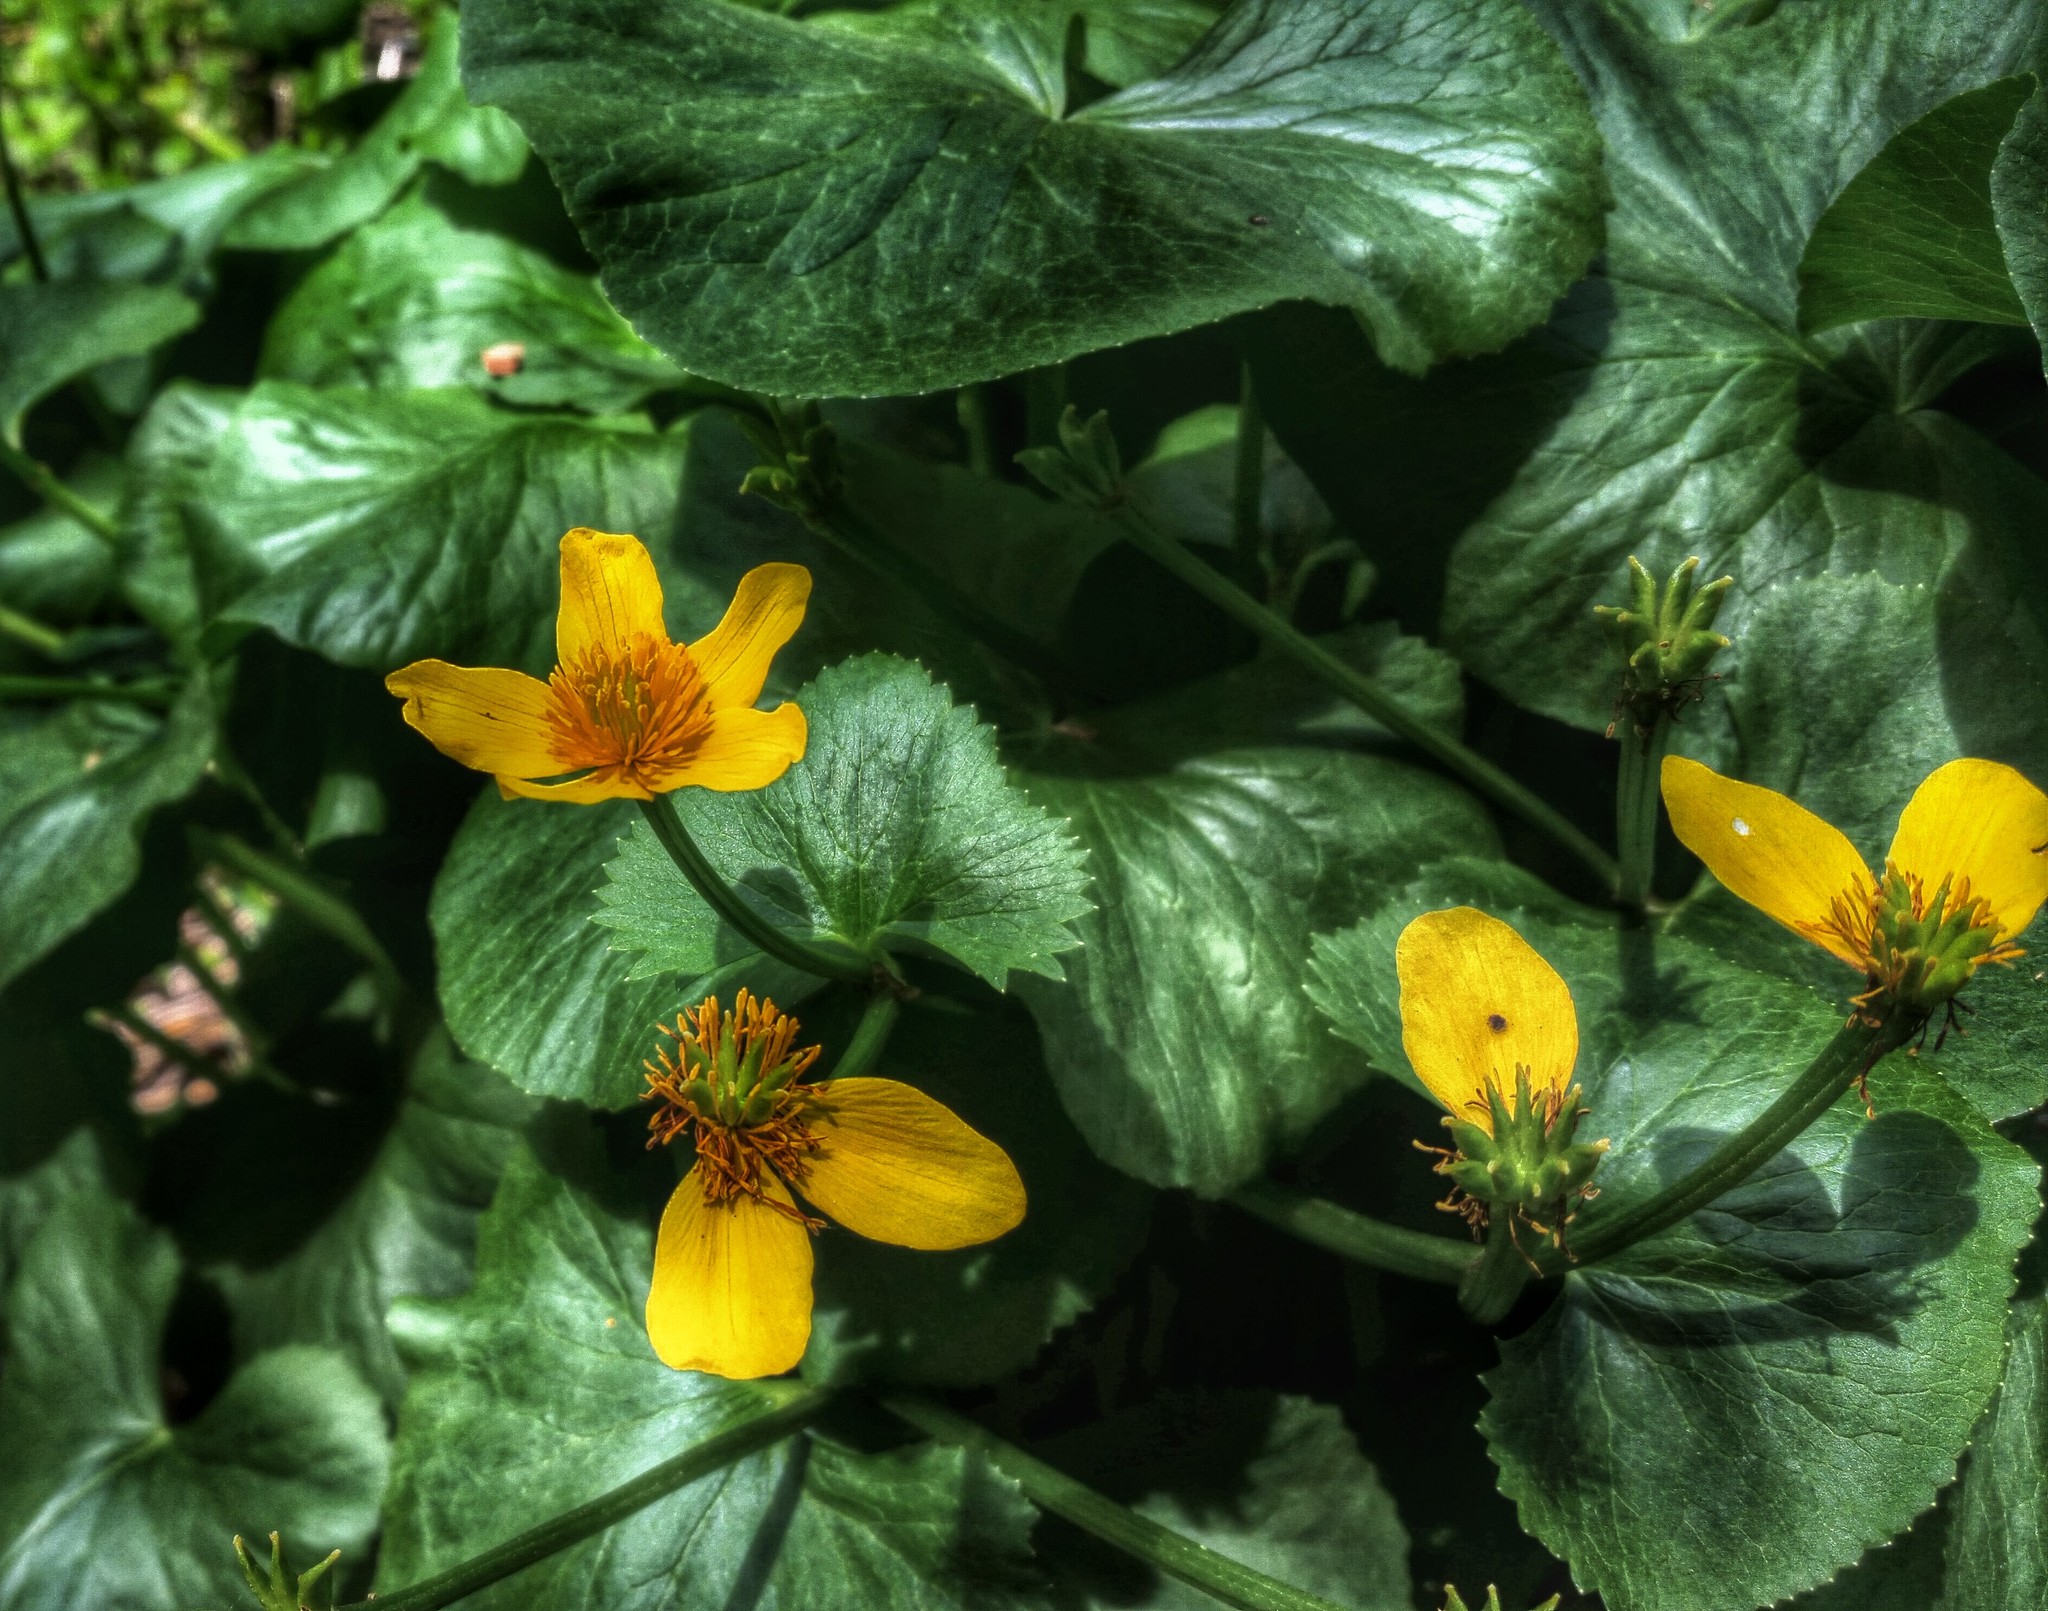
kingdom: Plantae
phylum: Tracheophyta
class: Magnoliopsida
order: Ranunculales
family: Ranunculaceae
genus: Caltha
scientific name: Caltha palustris
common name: Marsh marigold
